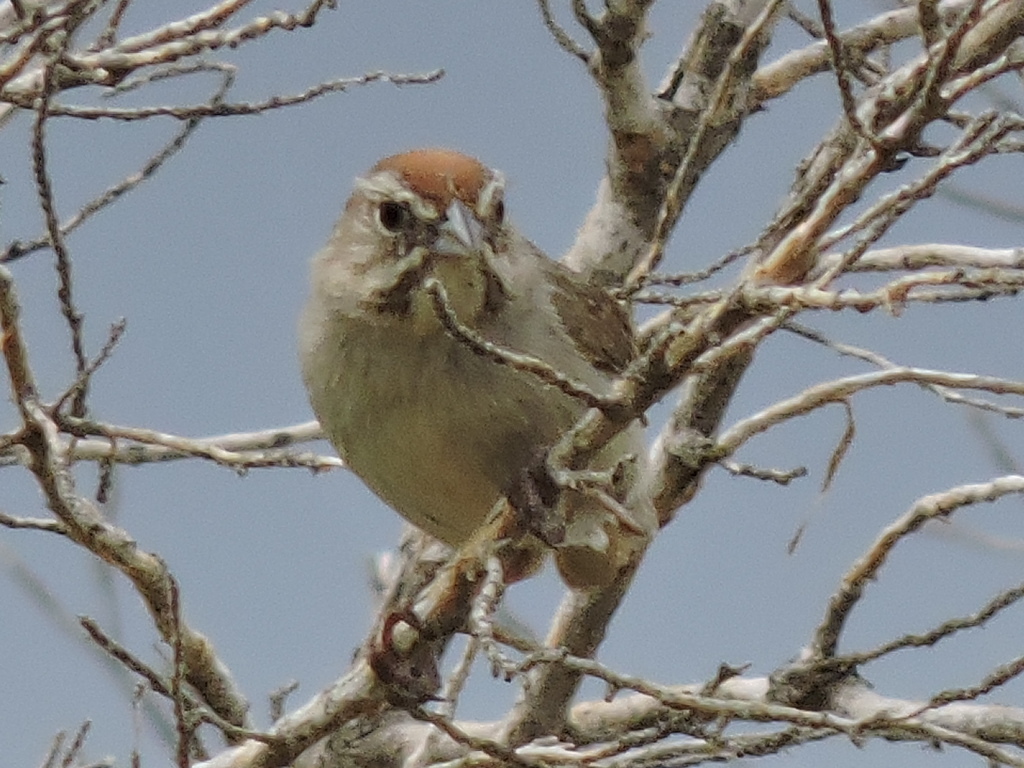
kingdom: Animalia
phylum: Chordata
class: Aves
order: Passeriformes
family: Passerellidae
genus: Aimophila
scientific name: Aimophila ruficeps
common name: Rufous-crowned sparrow
